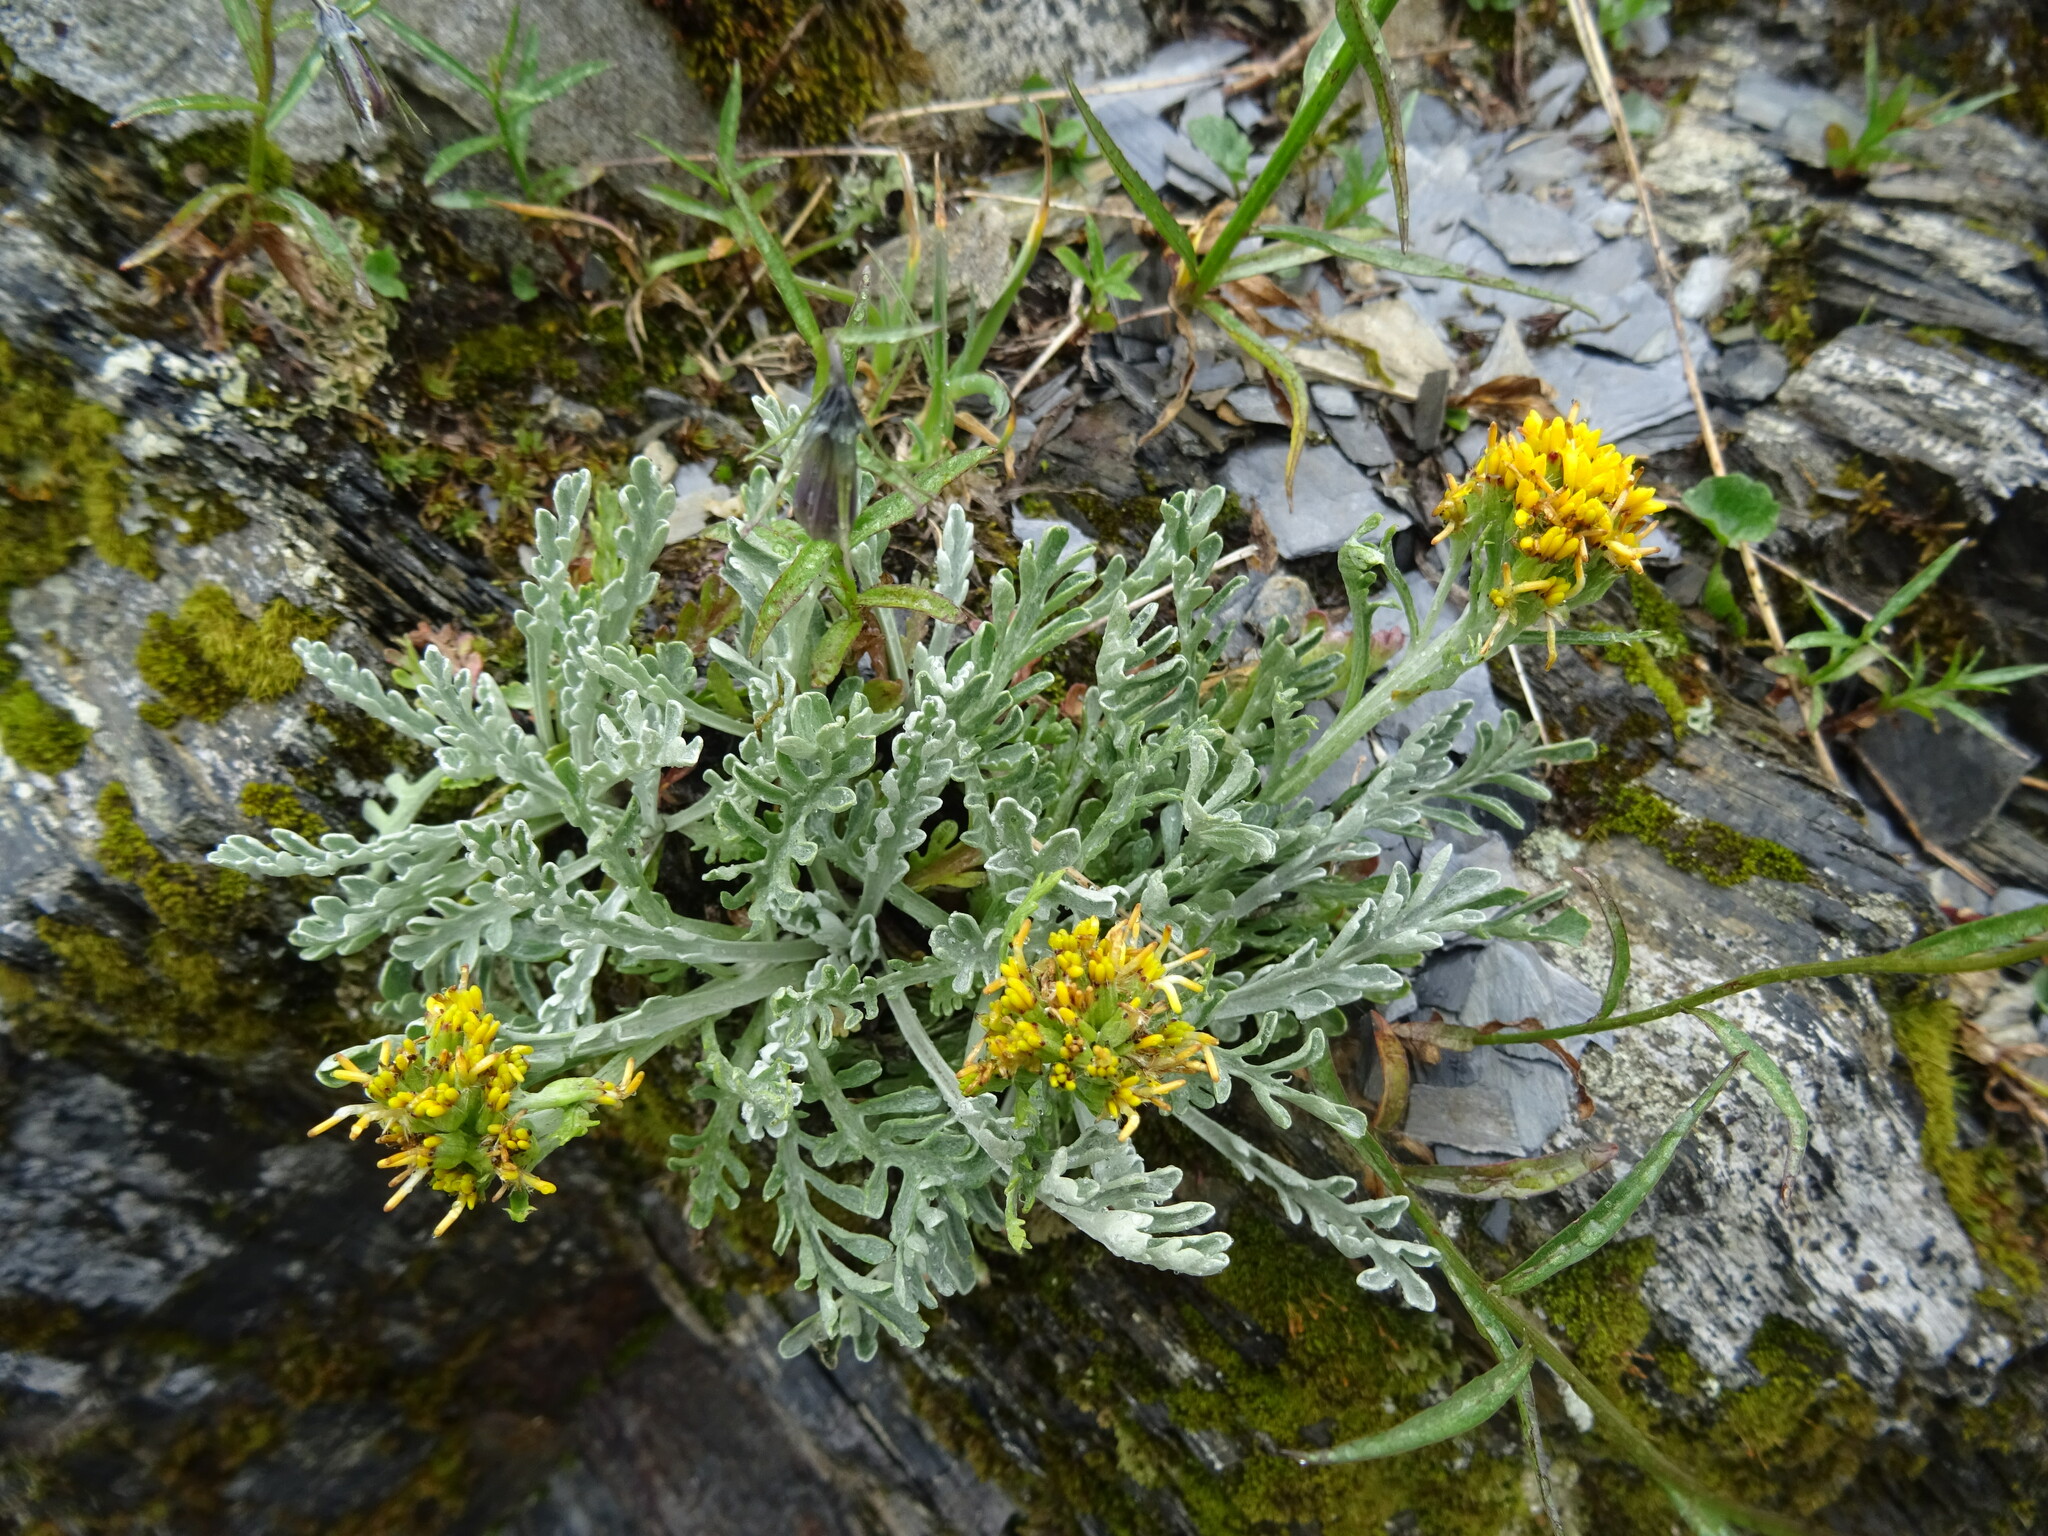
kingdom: Plantae
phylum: Tracheophyta
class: Magnoliopsida
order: Asterales
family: Asteraceae
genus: Jacobaea
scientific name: Jacobaea incana
